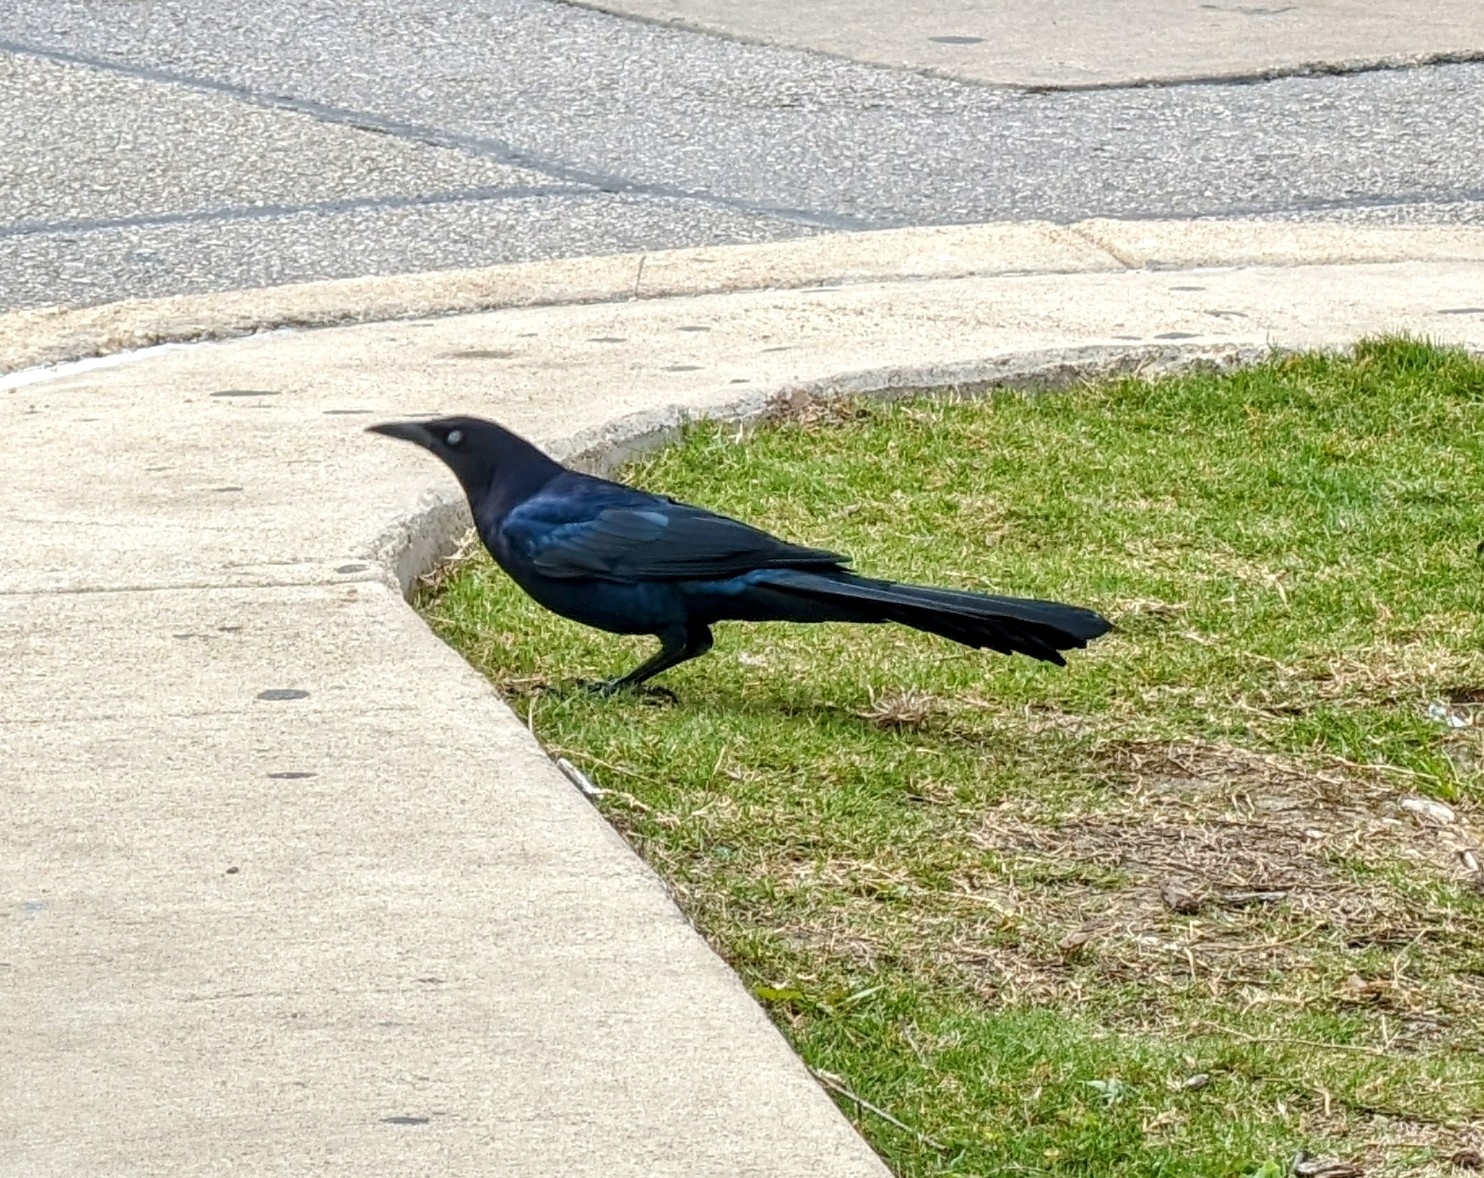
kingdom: Animalia
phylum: Chordata
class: Aves
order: Passeriformes
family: Icteridae
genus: Quiscalus
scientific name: Quiscalus mexicanus
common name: Great-tailed grackle
